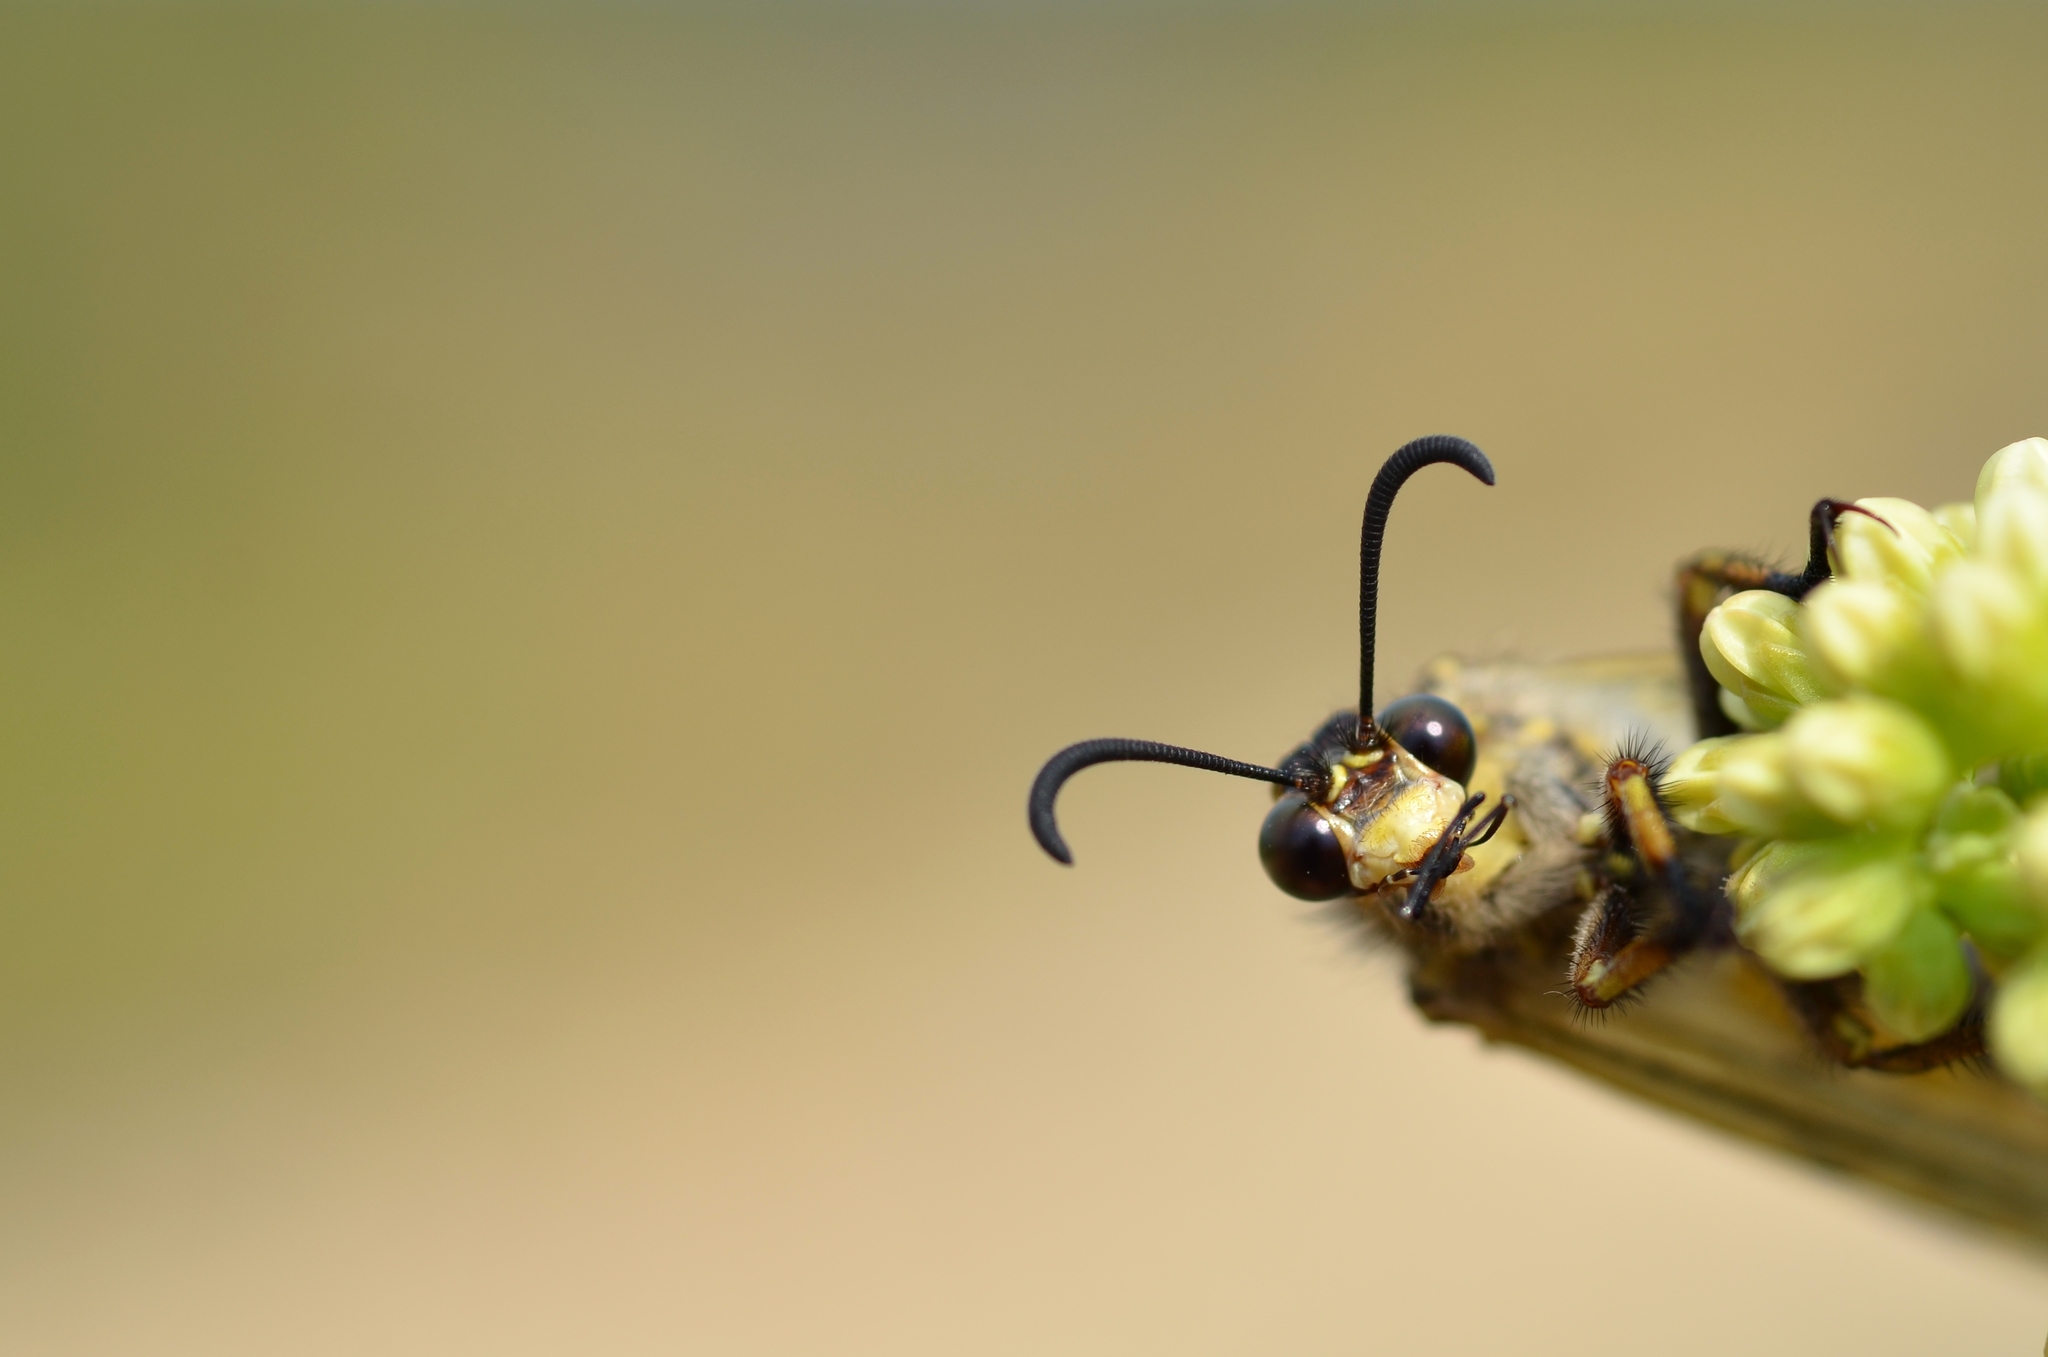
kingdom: Animalia
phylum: Arthropoda
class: Insecta
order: Neuroptera
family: Myrmeleontidae
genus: Palpares
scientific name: Palpares libelluloides
